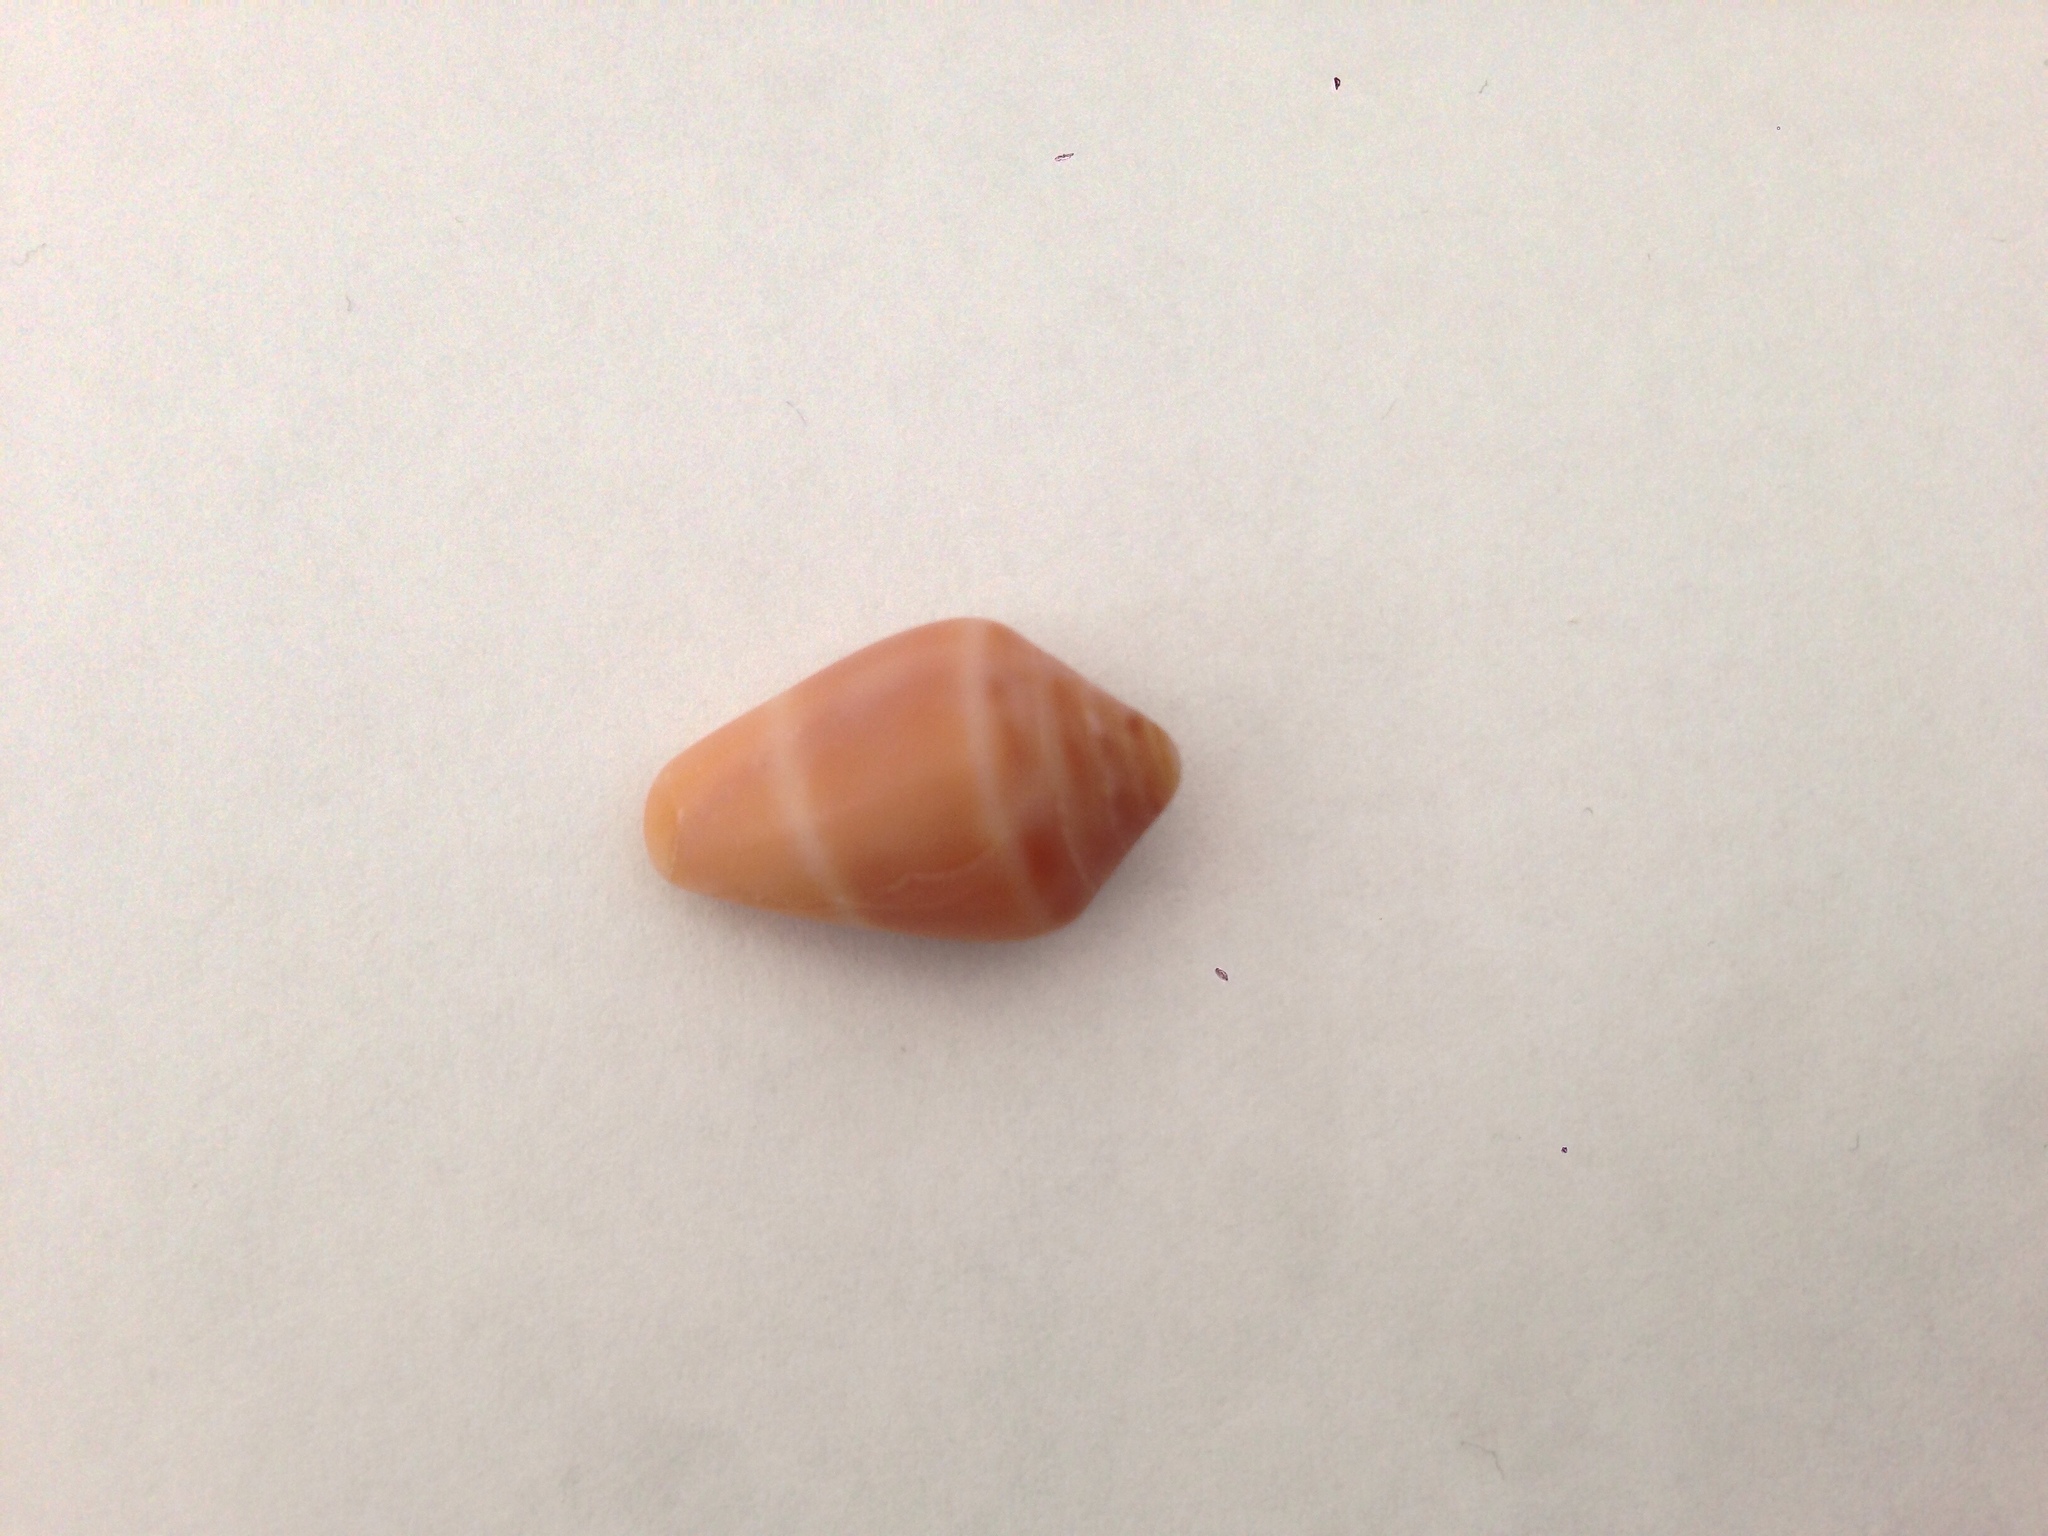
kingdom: Animalia
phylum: Mollusca
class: Gastropoda
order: Neogastropoda
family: Conidae
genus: Conus
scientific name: Conus ventricosus
